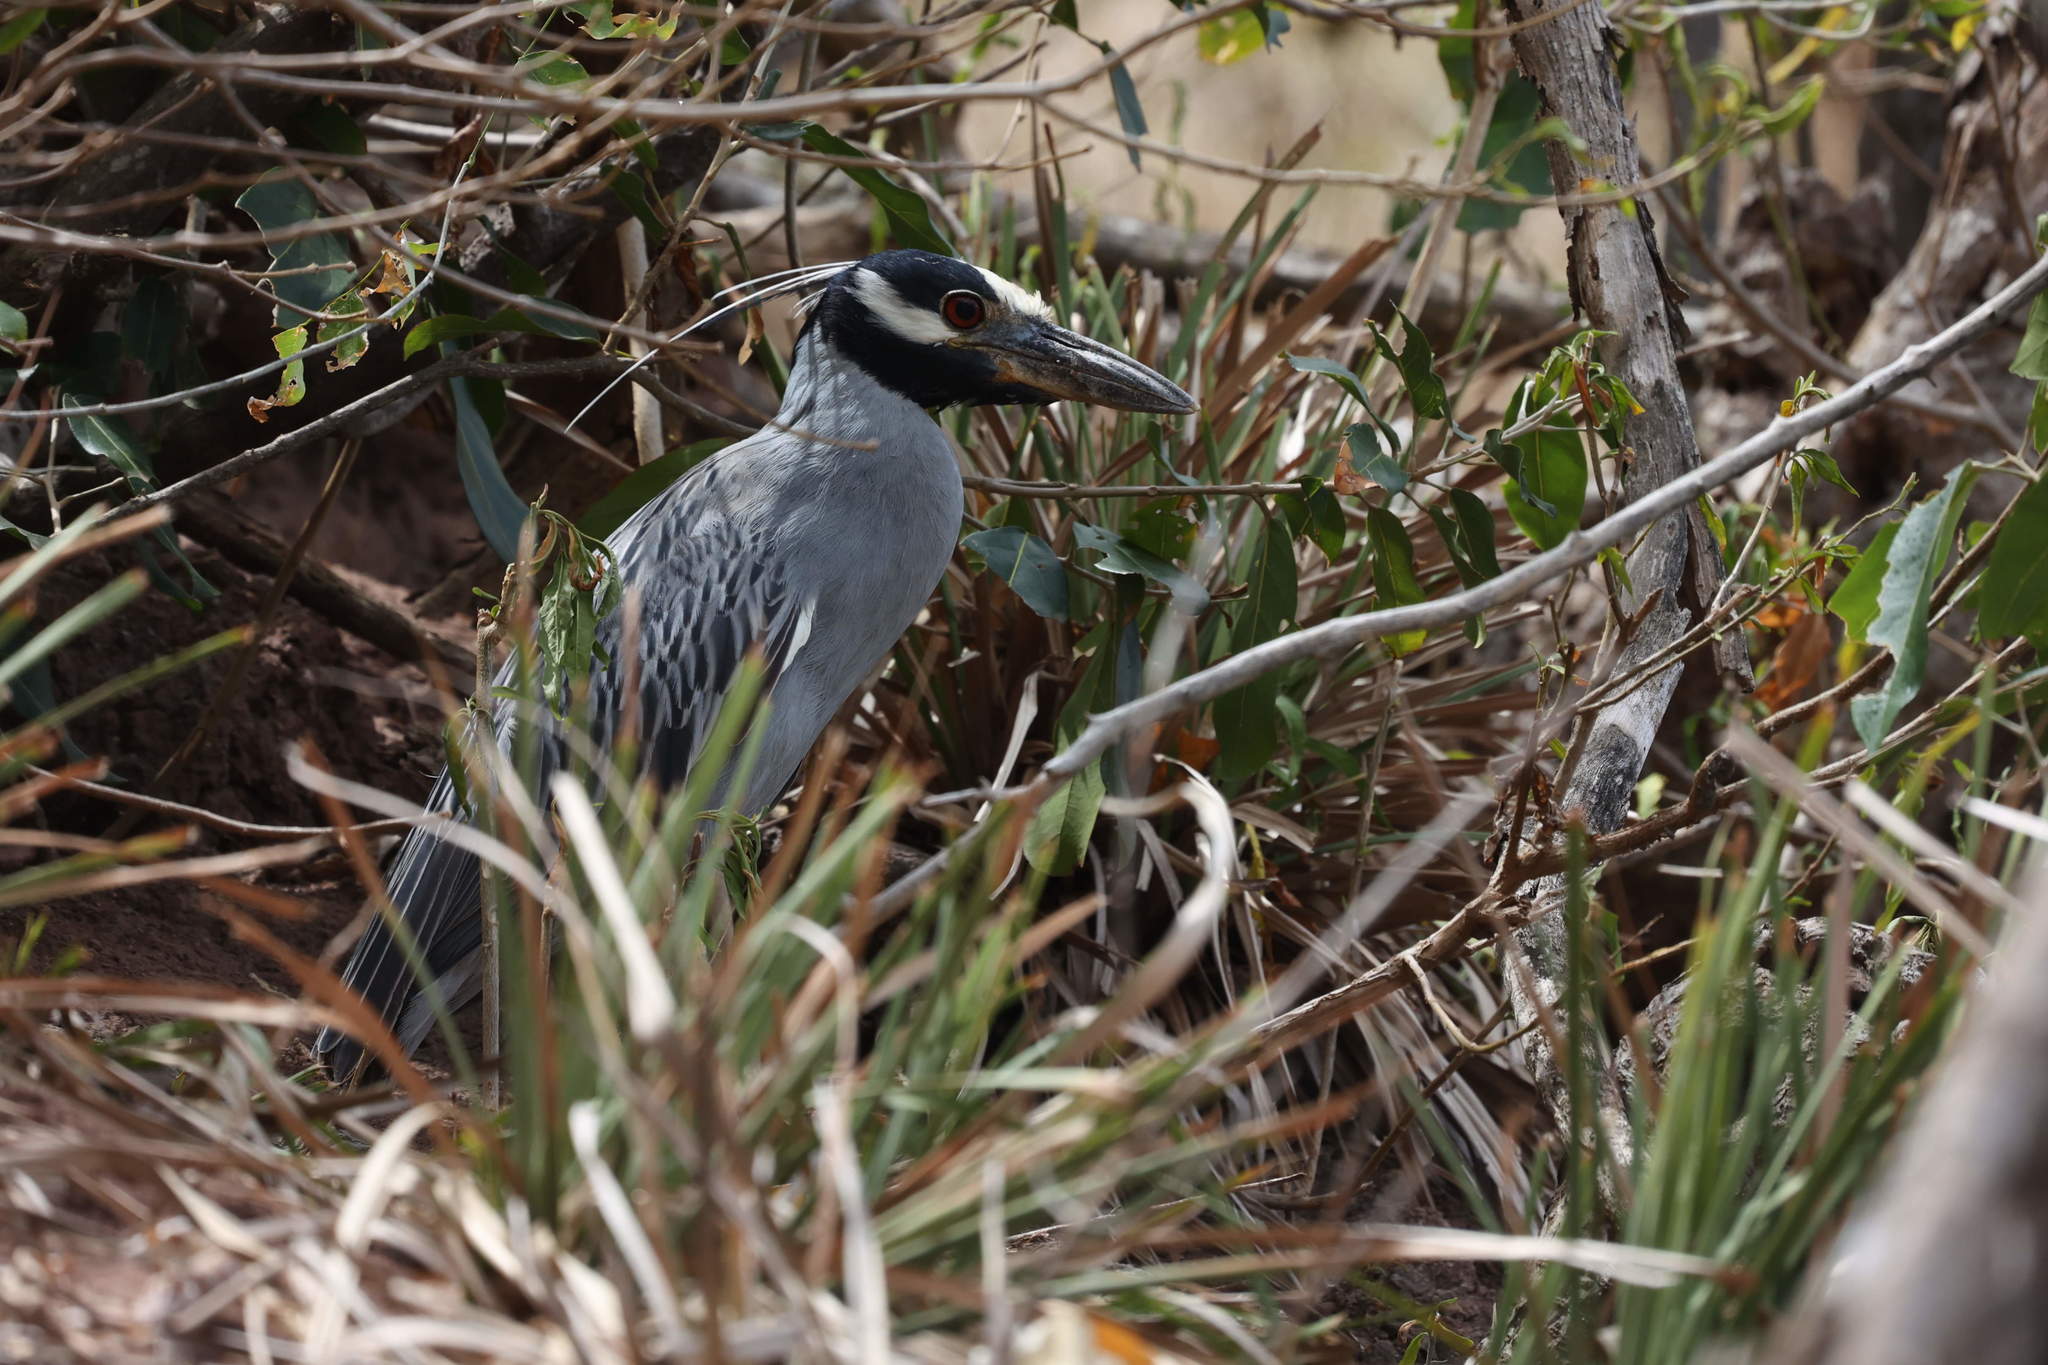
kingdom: Animalia
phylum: Chordata
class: Aves
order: Pelecaniformes
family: Ardeidae
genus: Nyctanassa
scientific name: Nyctanassa violacea
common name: Yellow-crowned night heron
